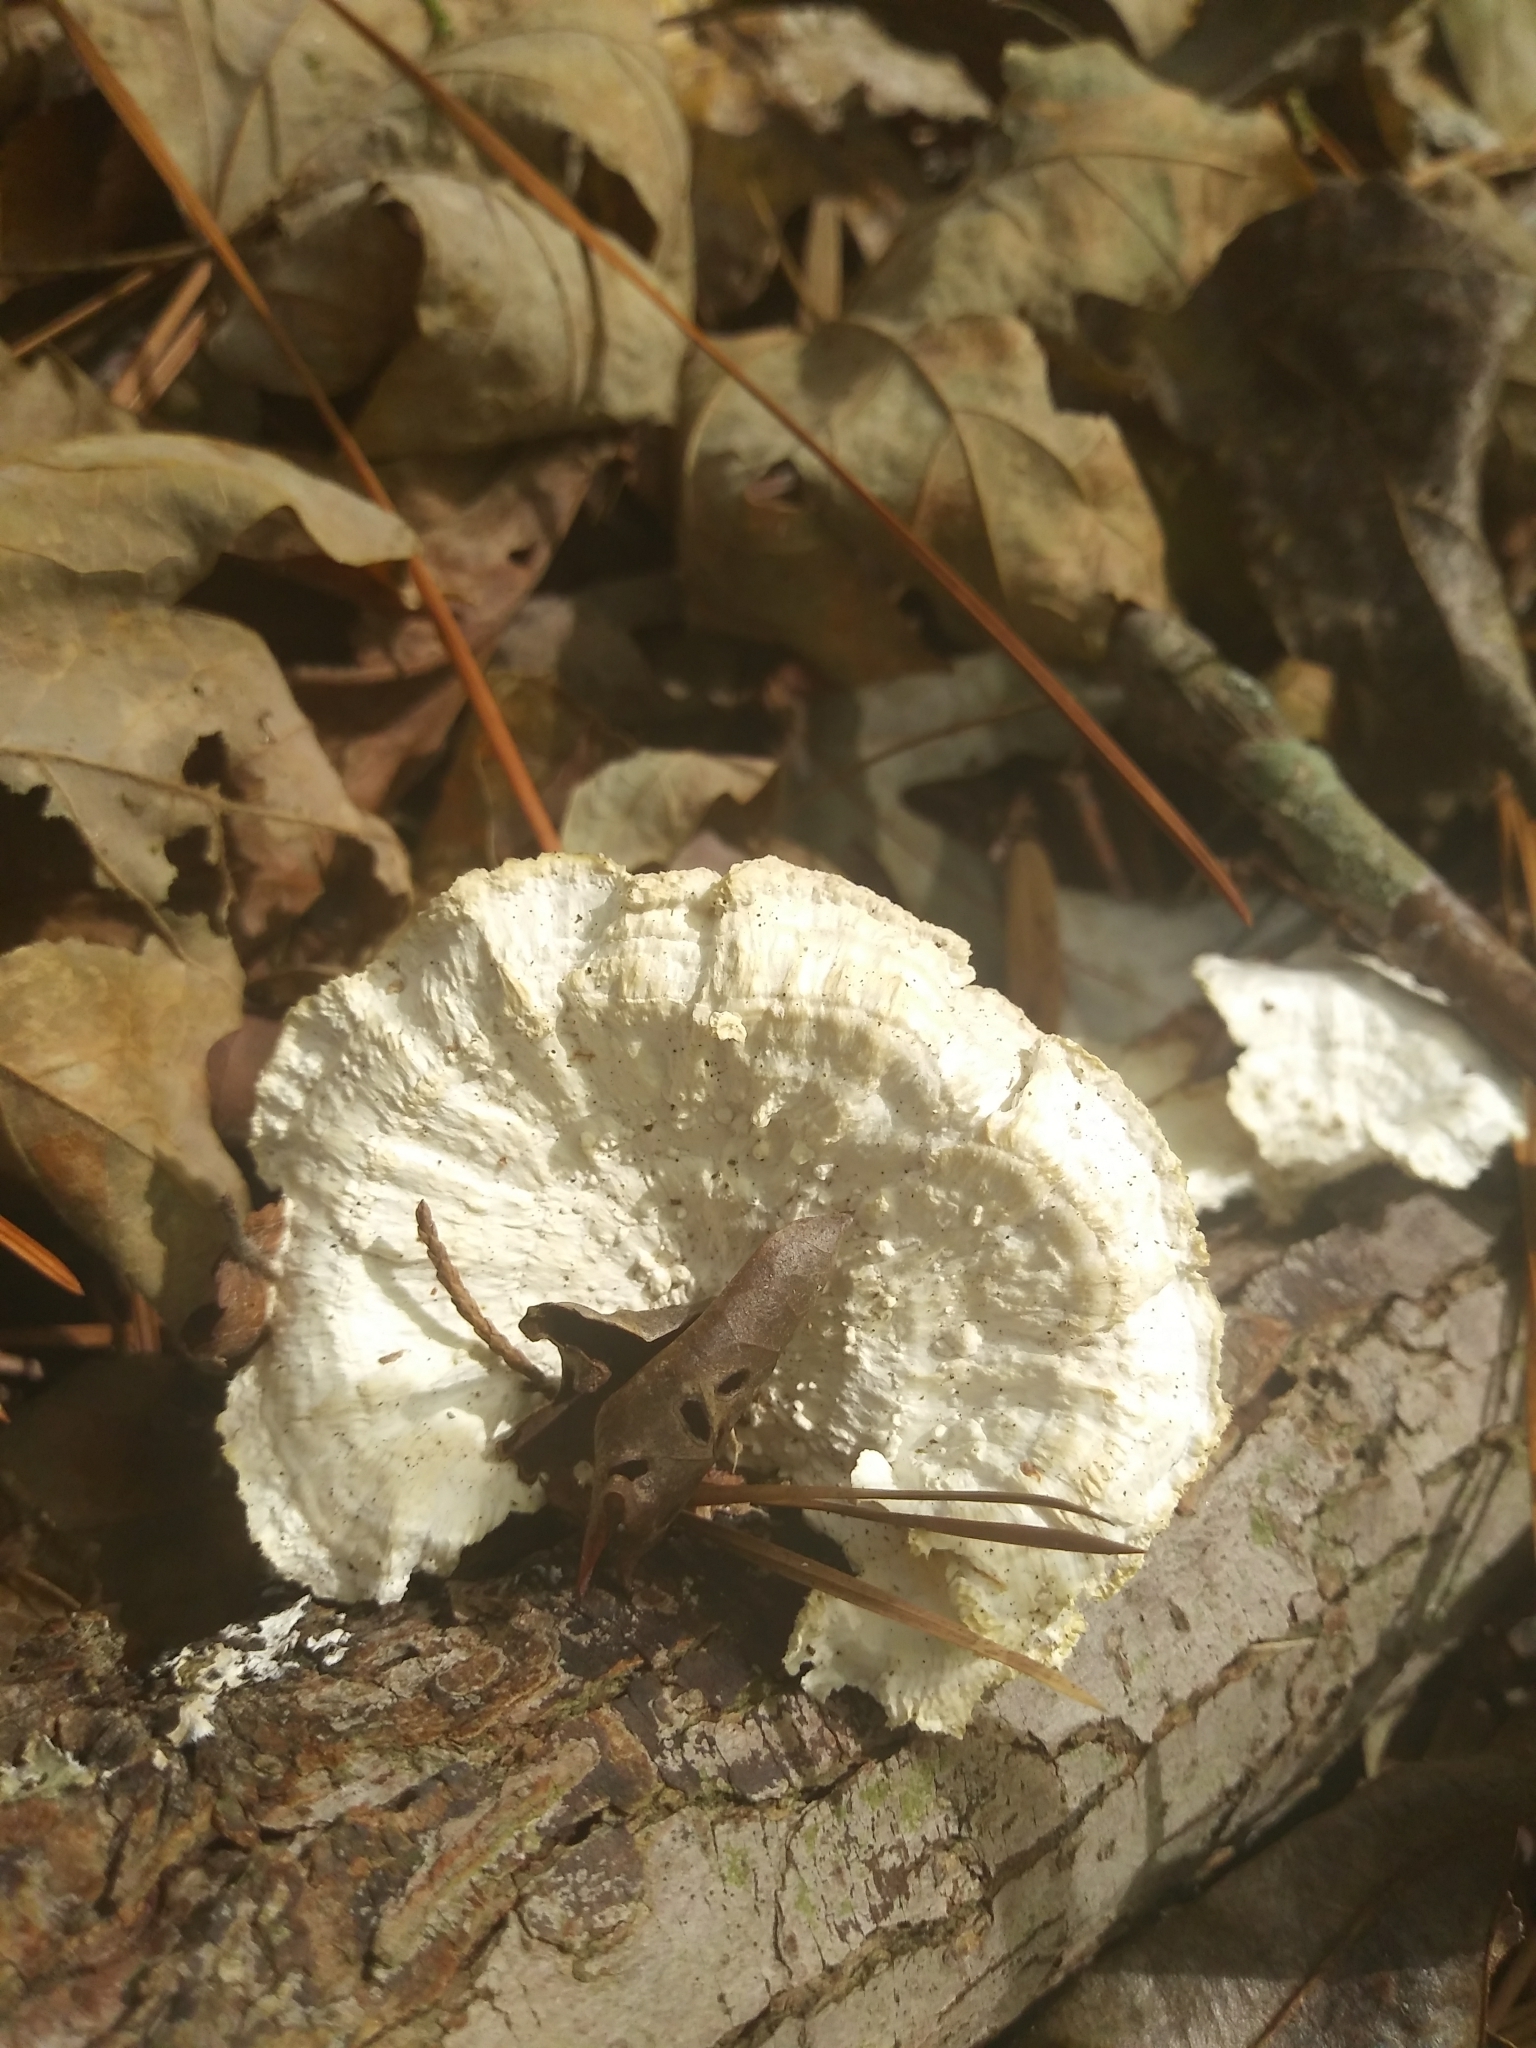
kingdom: Fungi
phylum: Basidiomycota
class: Agaricomycetes
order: Polyporales
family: Irpicaceae
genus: Trametopsis
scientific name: Trametopsis cervina
